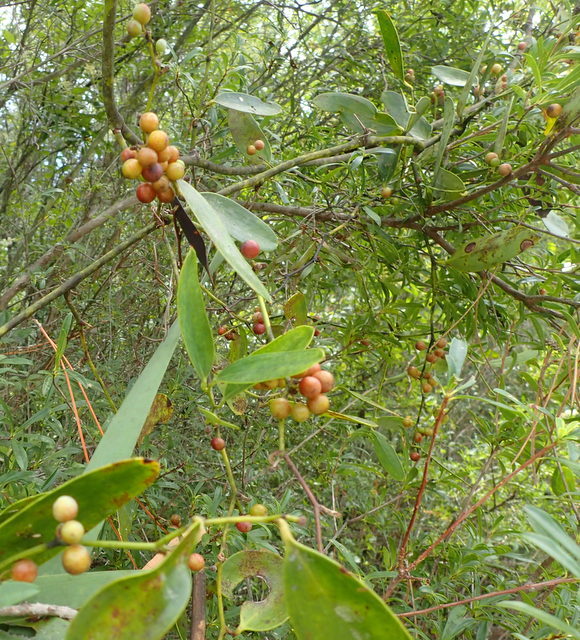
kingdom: Plantae
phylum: Tracheophyta
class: Liliopsida
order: Liliales
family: Smilacaceae
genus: Smilax
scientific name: Smilax laurifolia
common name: Bamboovine
